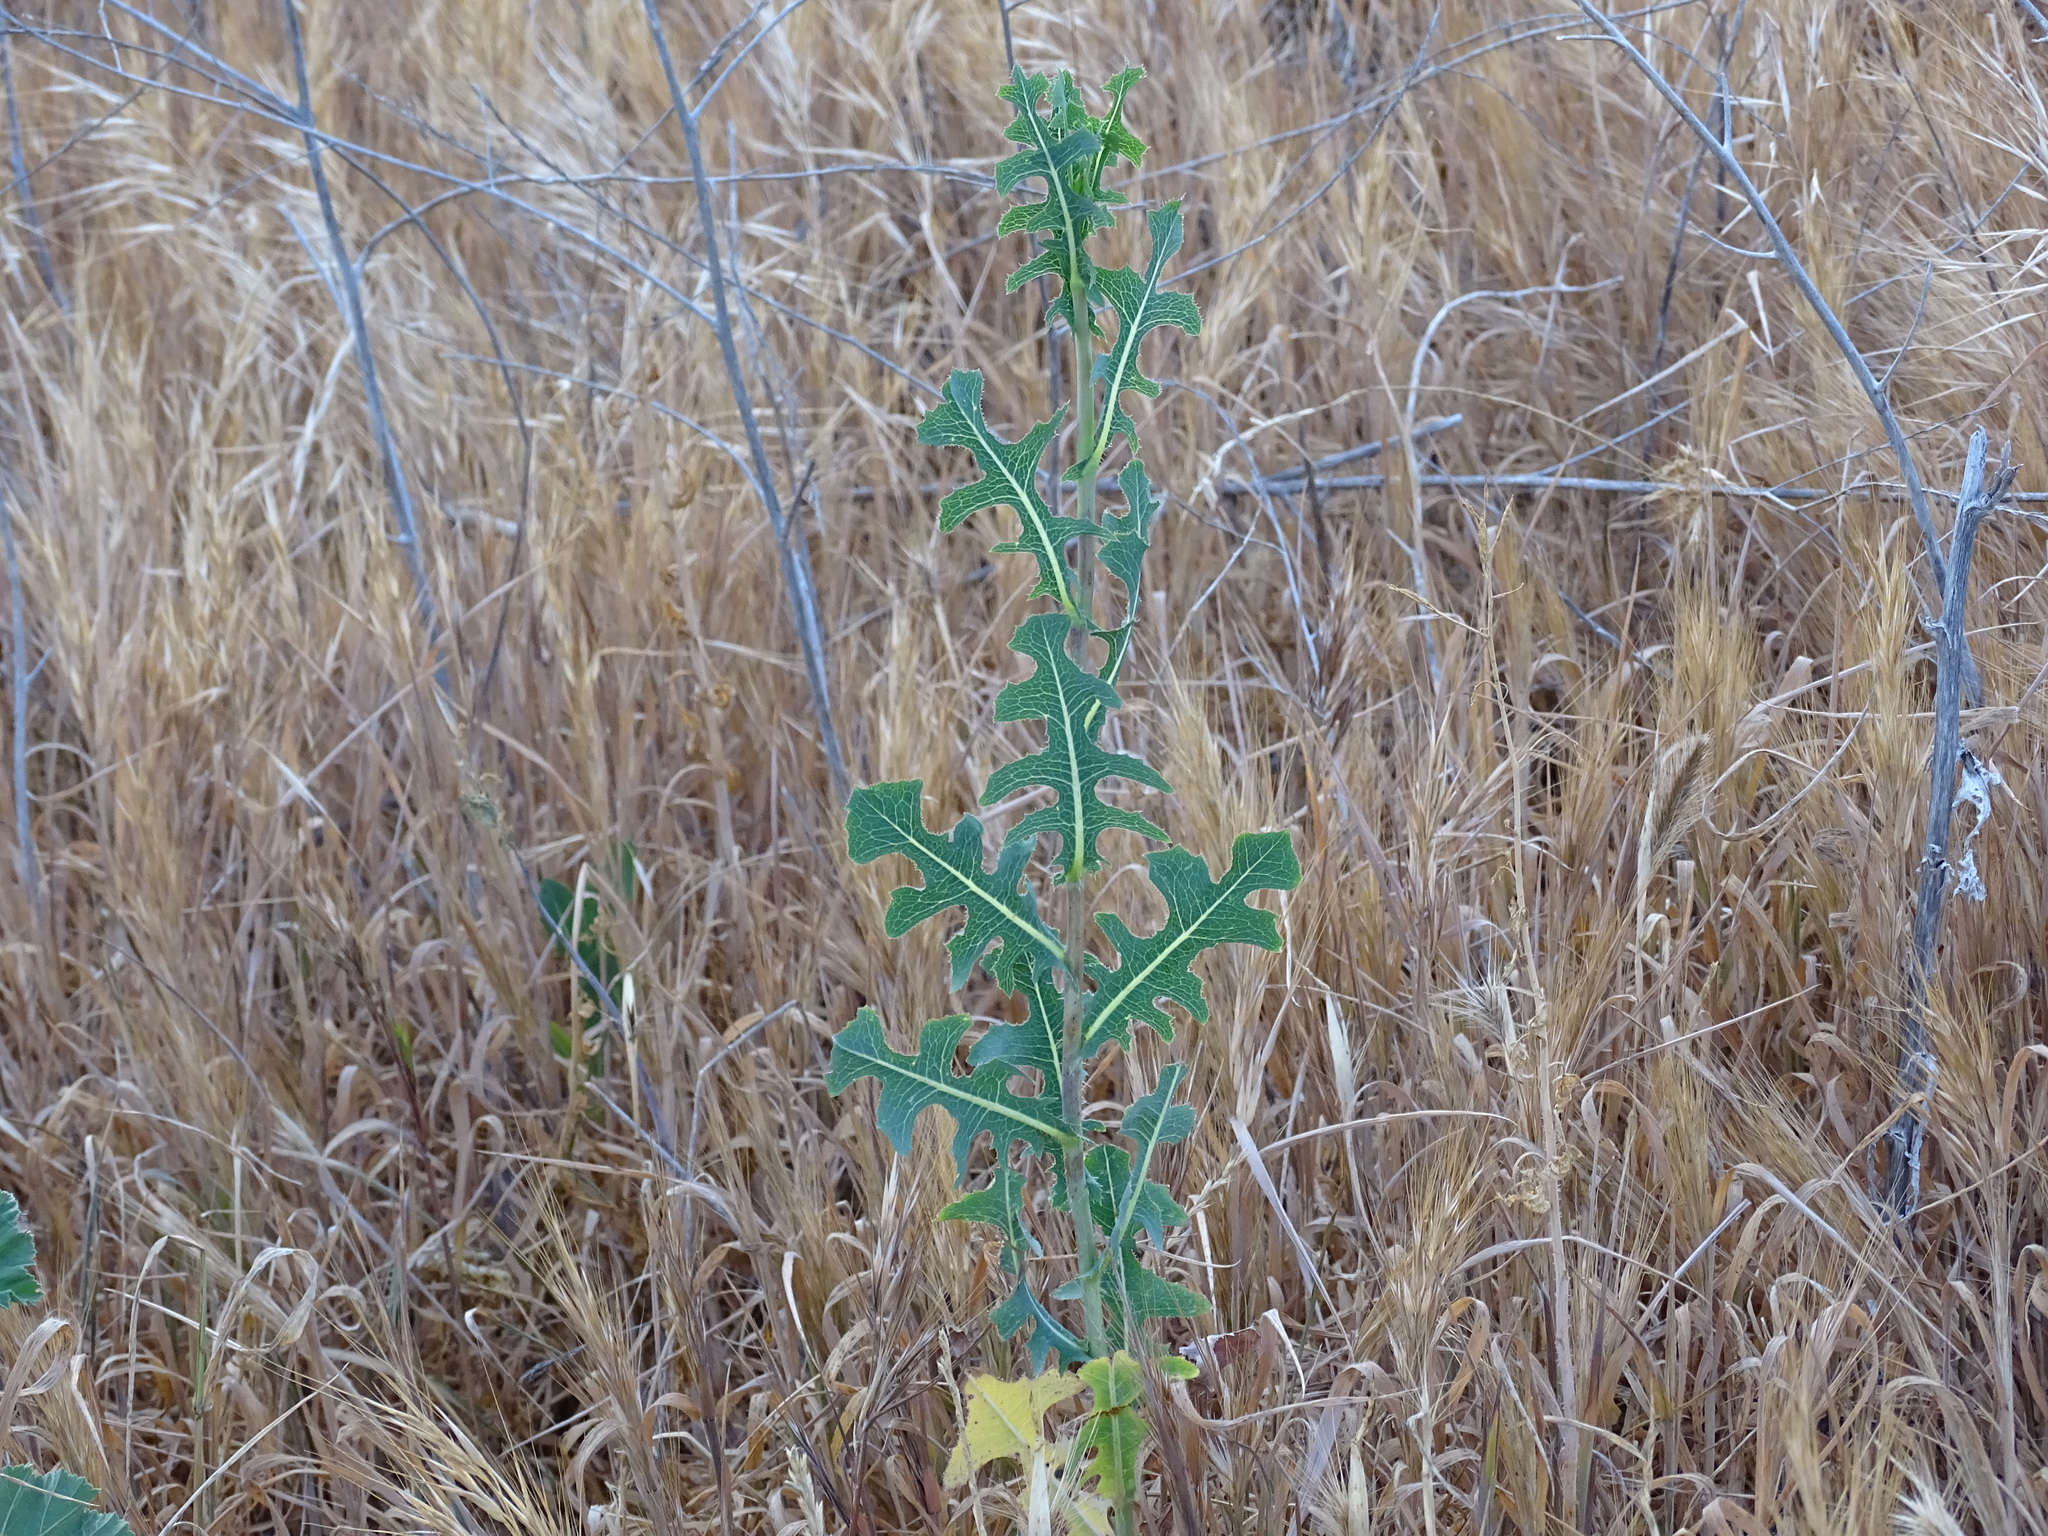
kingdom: Plantae
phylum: Tracheophyta
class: Magnoliopsida
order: Asterales
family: Asteraceae
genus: Lactuca
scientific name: Lactuca serriola
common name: Prickly lettuce
